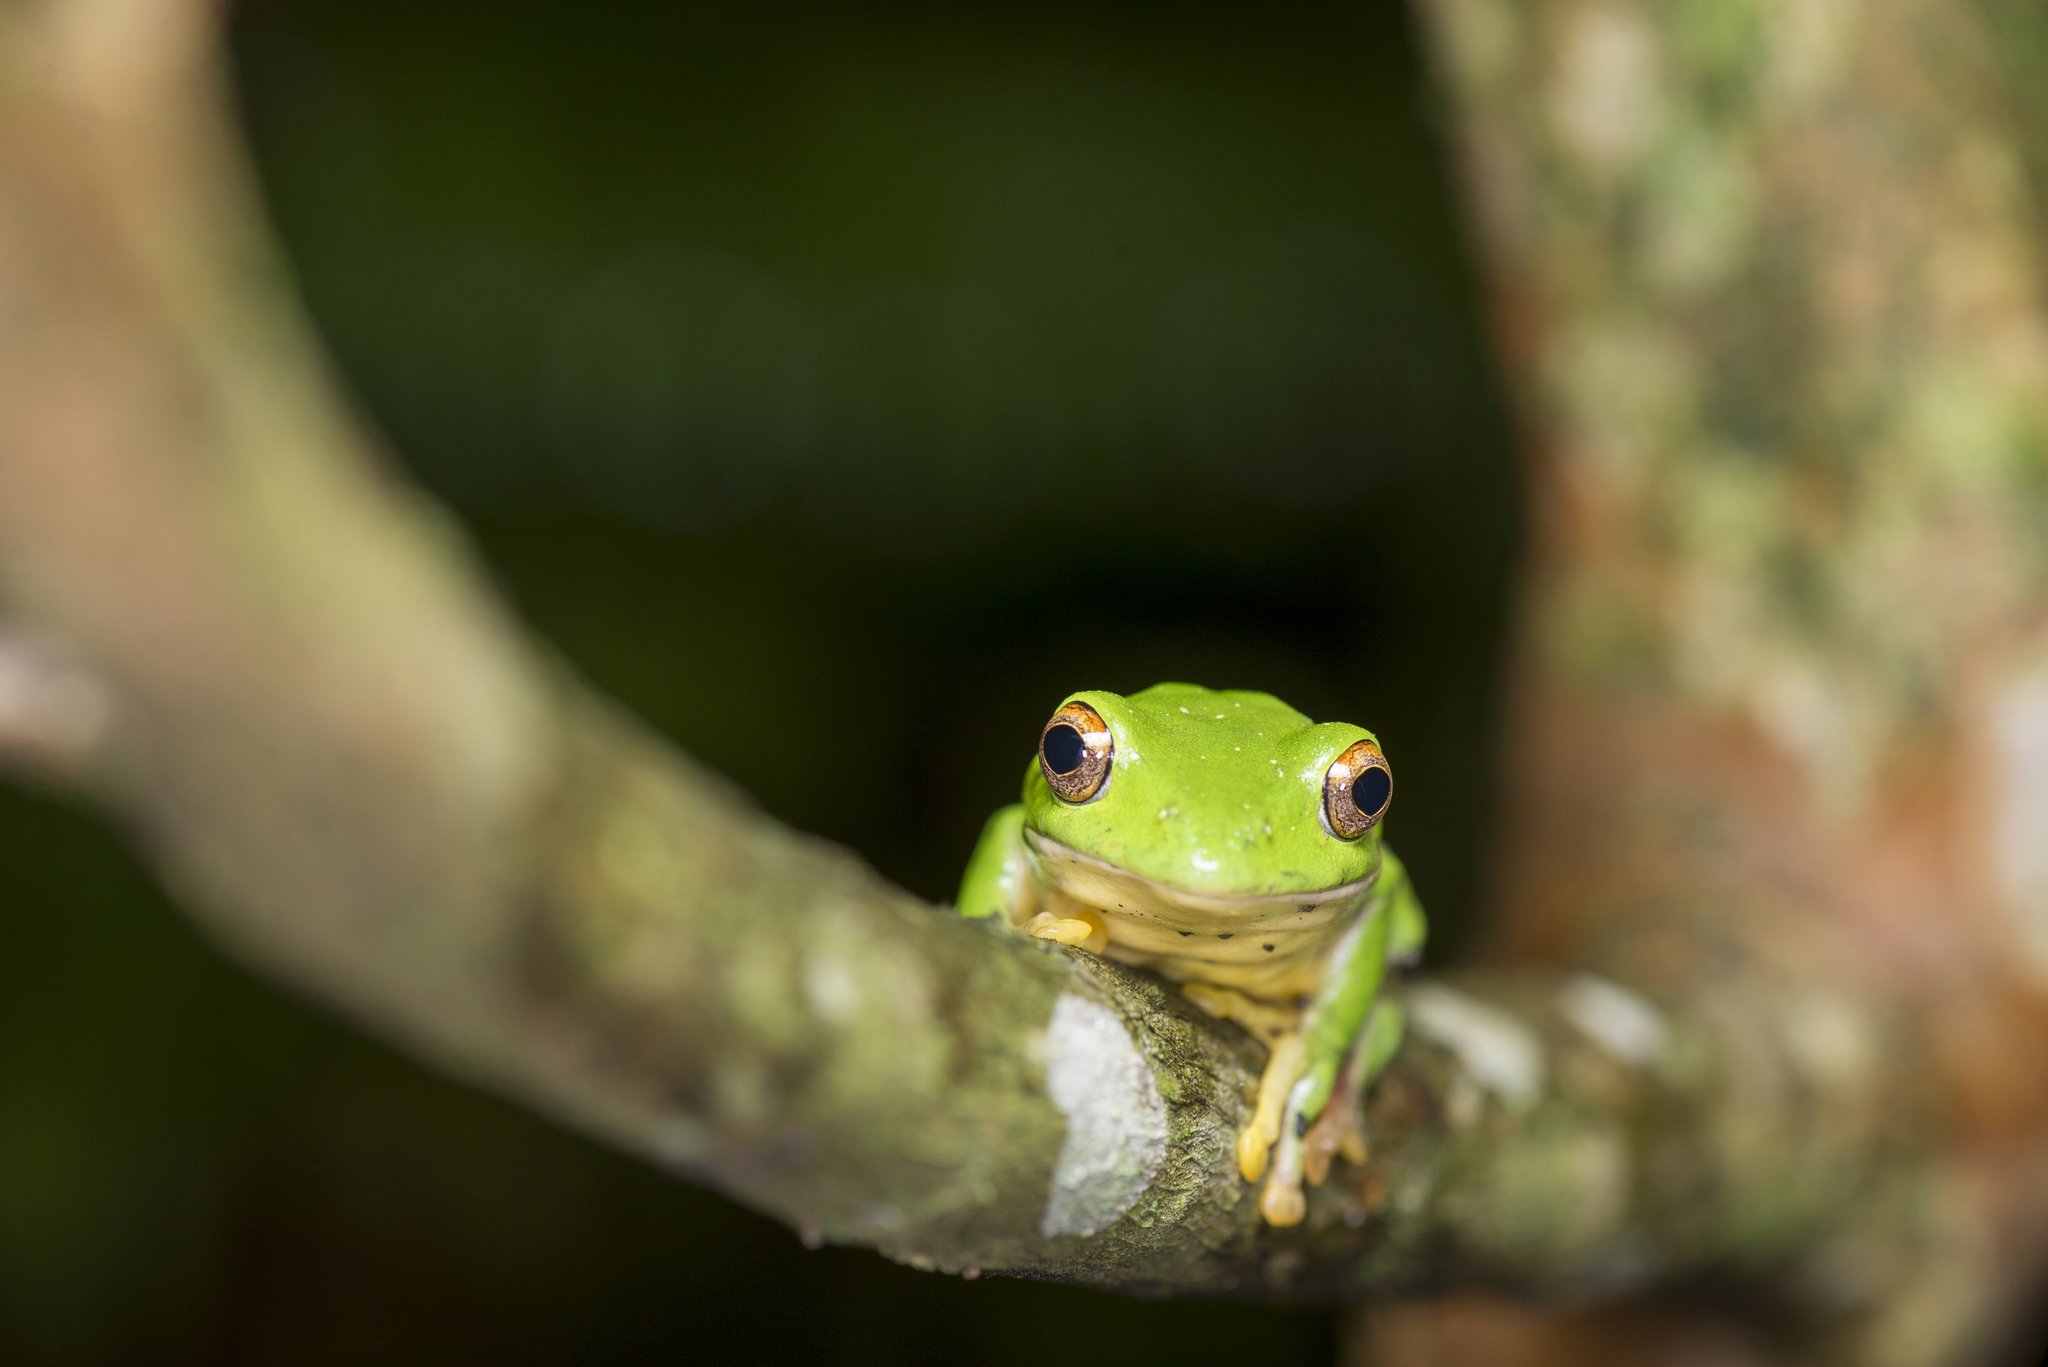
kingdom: Animalia
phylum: Chordata
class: Amphibia
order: Anura
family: Rhacophoridae
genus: Zhangixalus
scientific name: Zhangixalus moltrechti
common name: Moltrecht's treefrog
